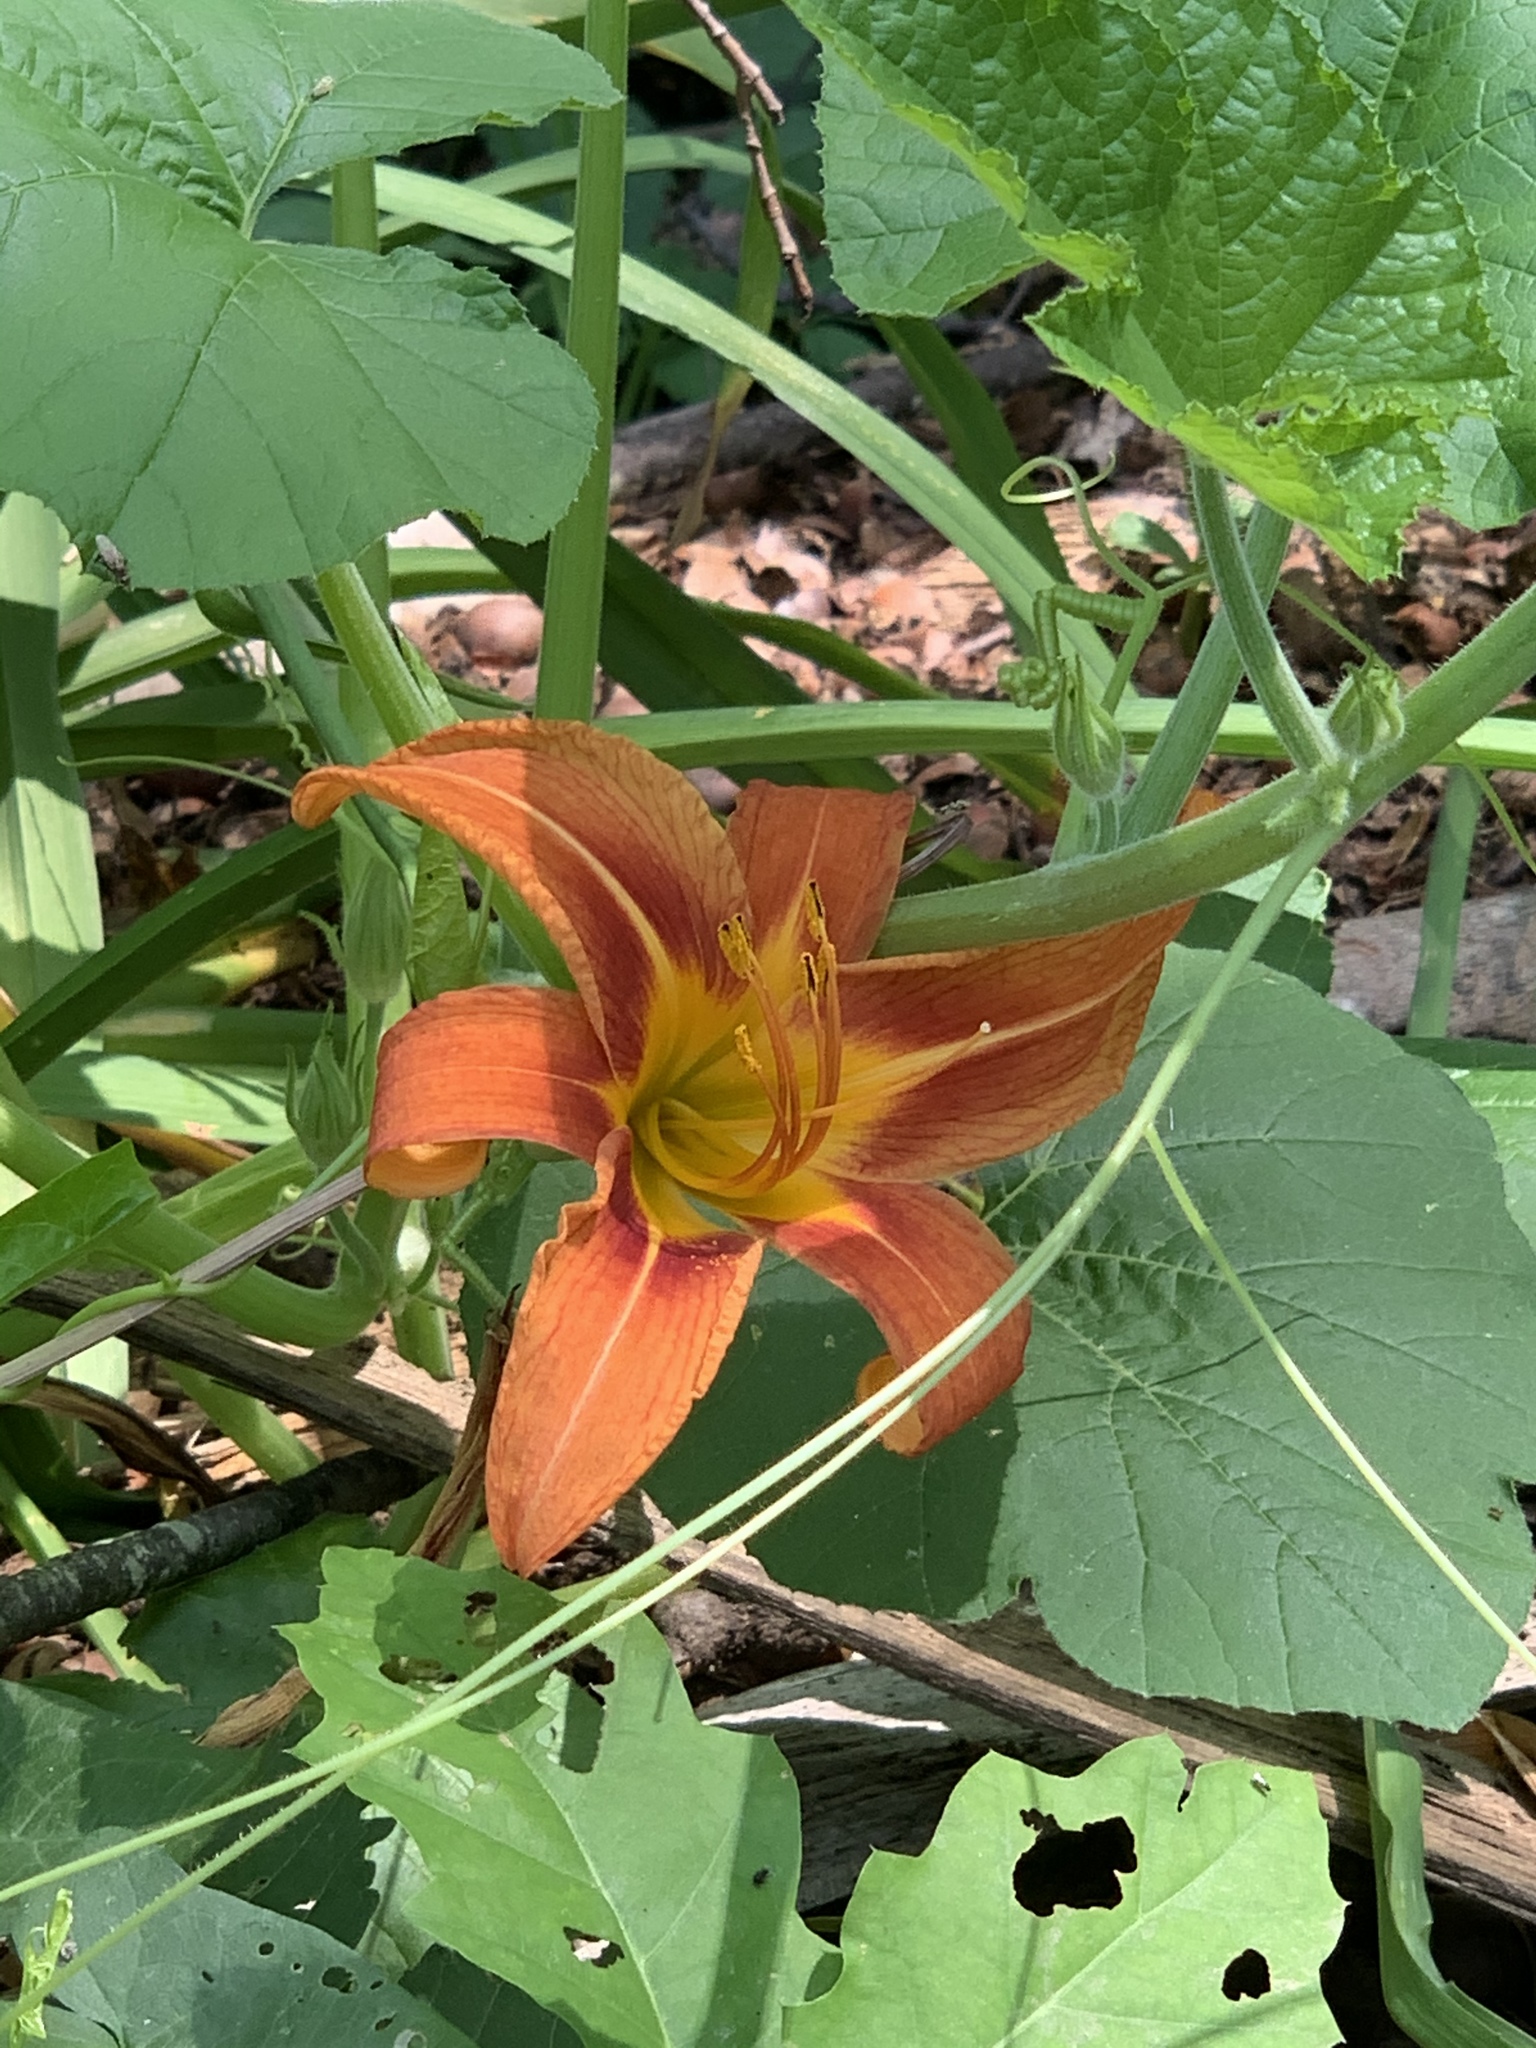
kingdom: Plantae
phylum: Tracheophyta
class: Liliopsida
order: Asparagales
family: Asphodelaceae
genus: Hemerocallis
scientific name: Hemerocallis fulva
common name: Orange day-lily
